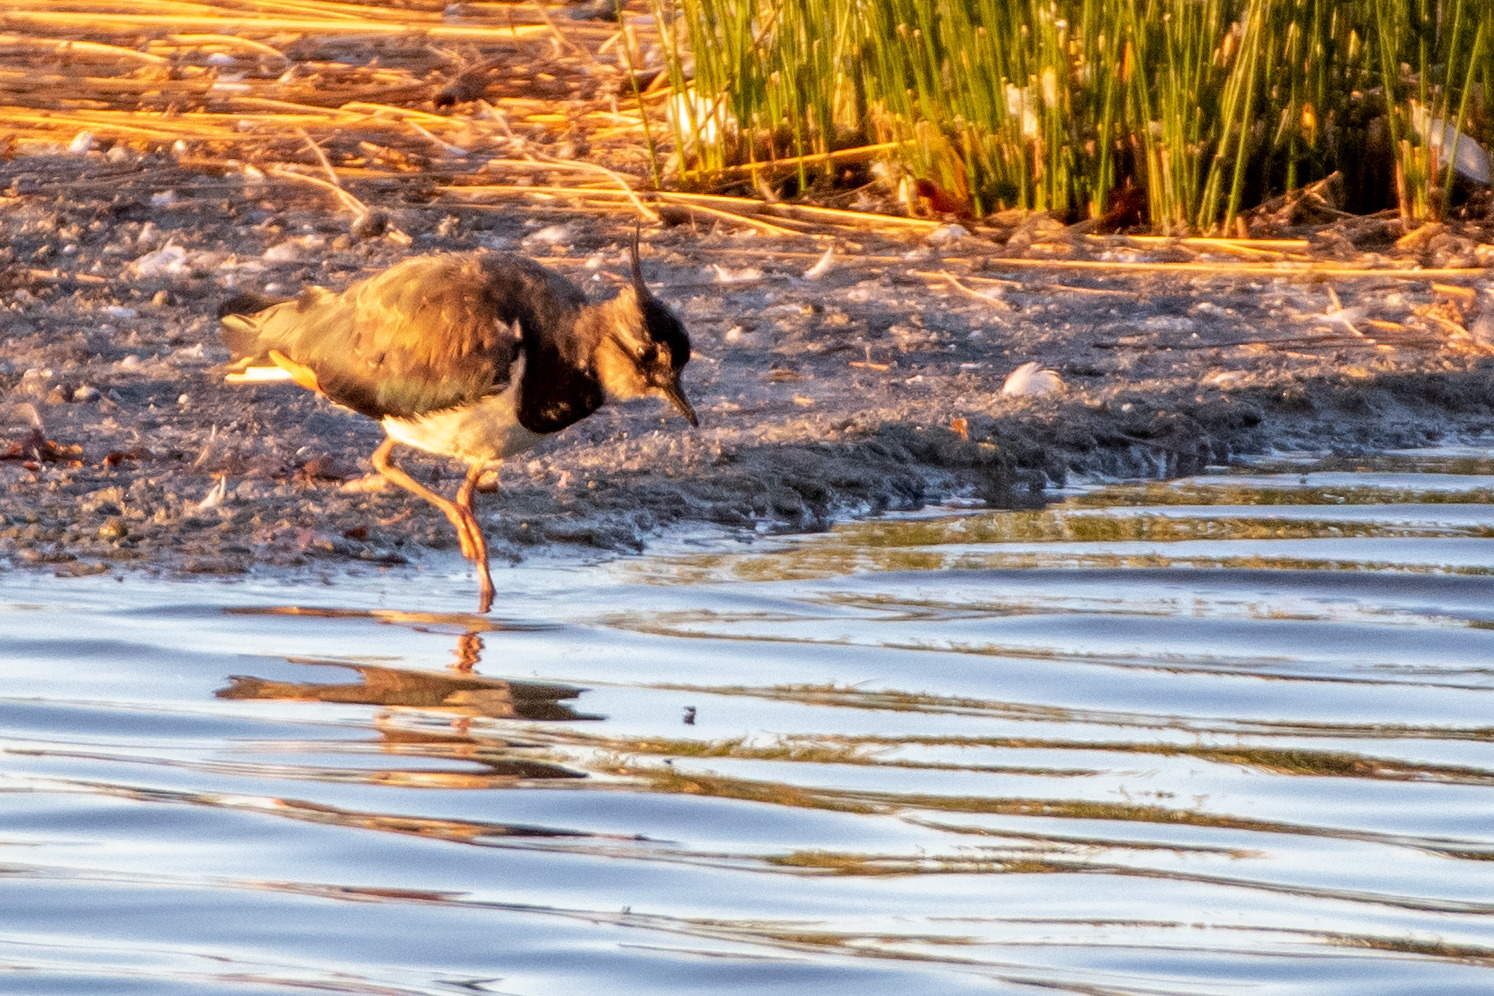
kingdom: Animalia
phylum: Chordata
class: Aves
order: Charadriiformes
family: Charadriidae
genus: Vanellus
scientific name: Vanellus vanellus
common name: Northern lapwing
